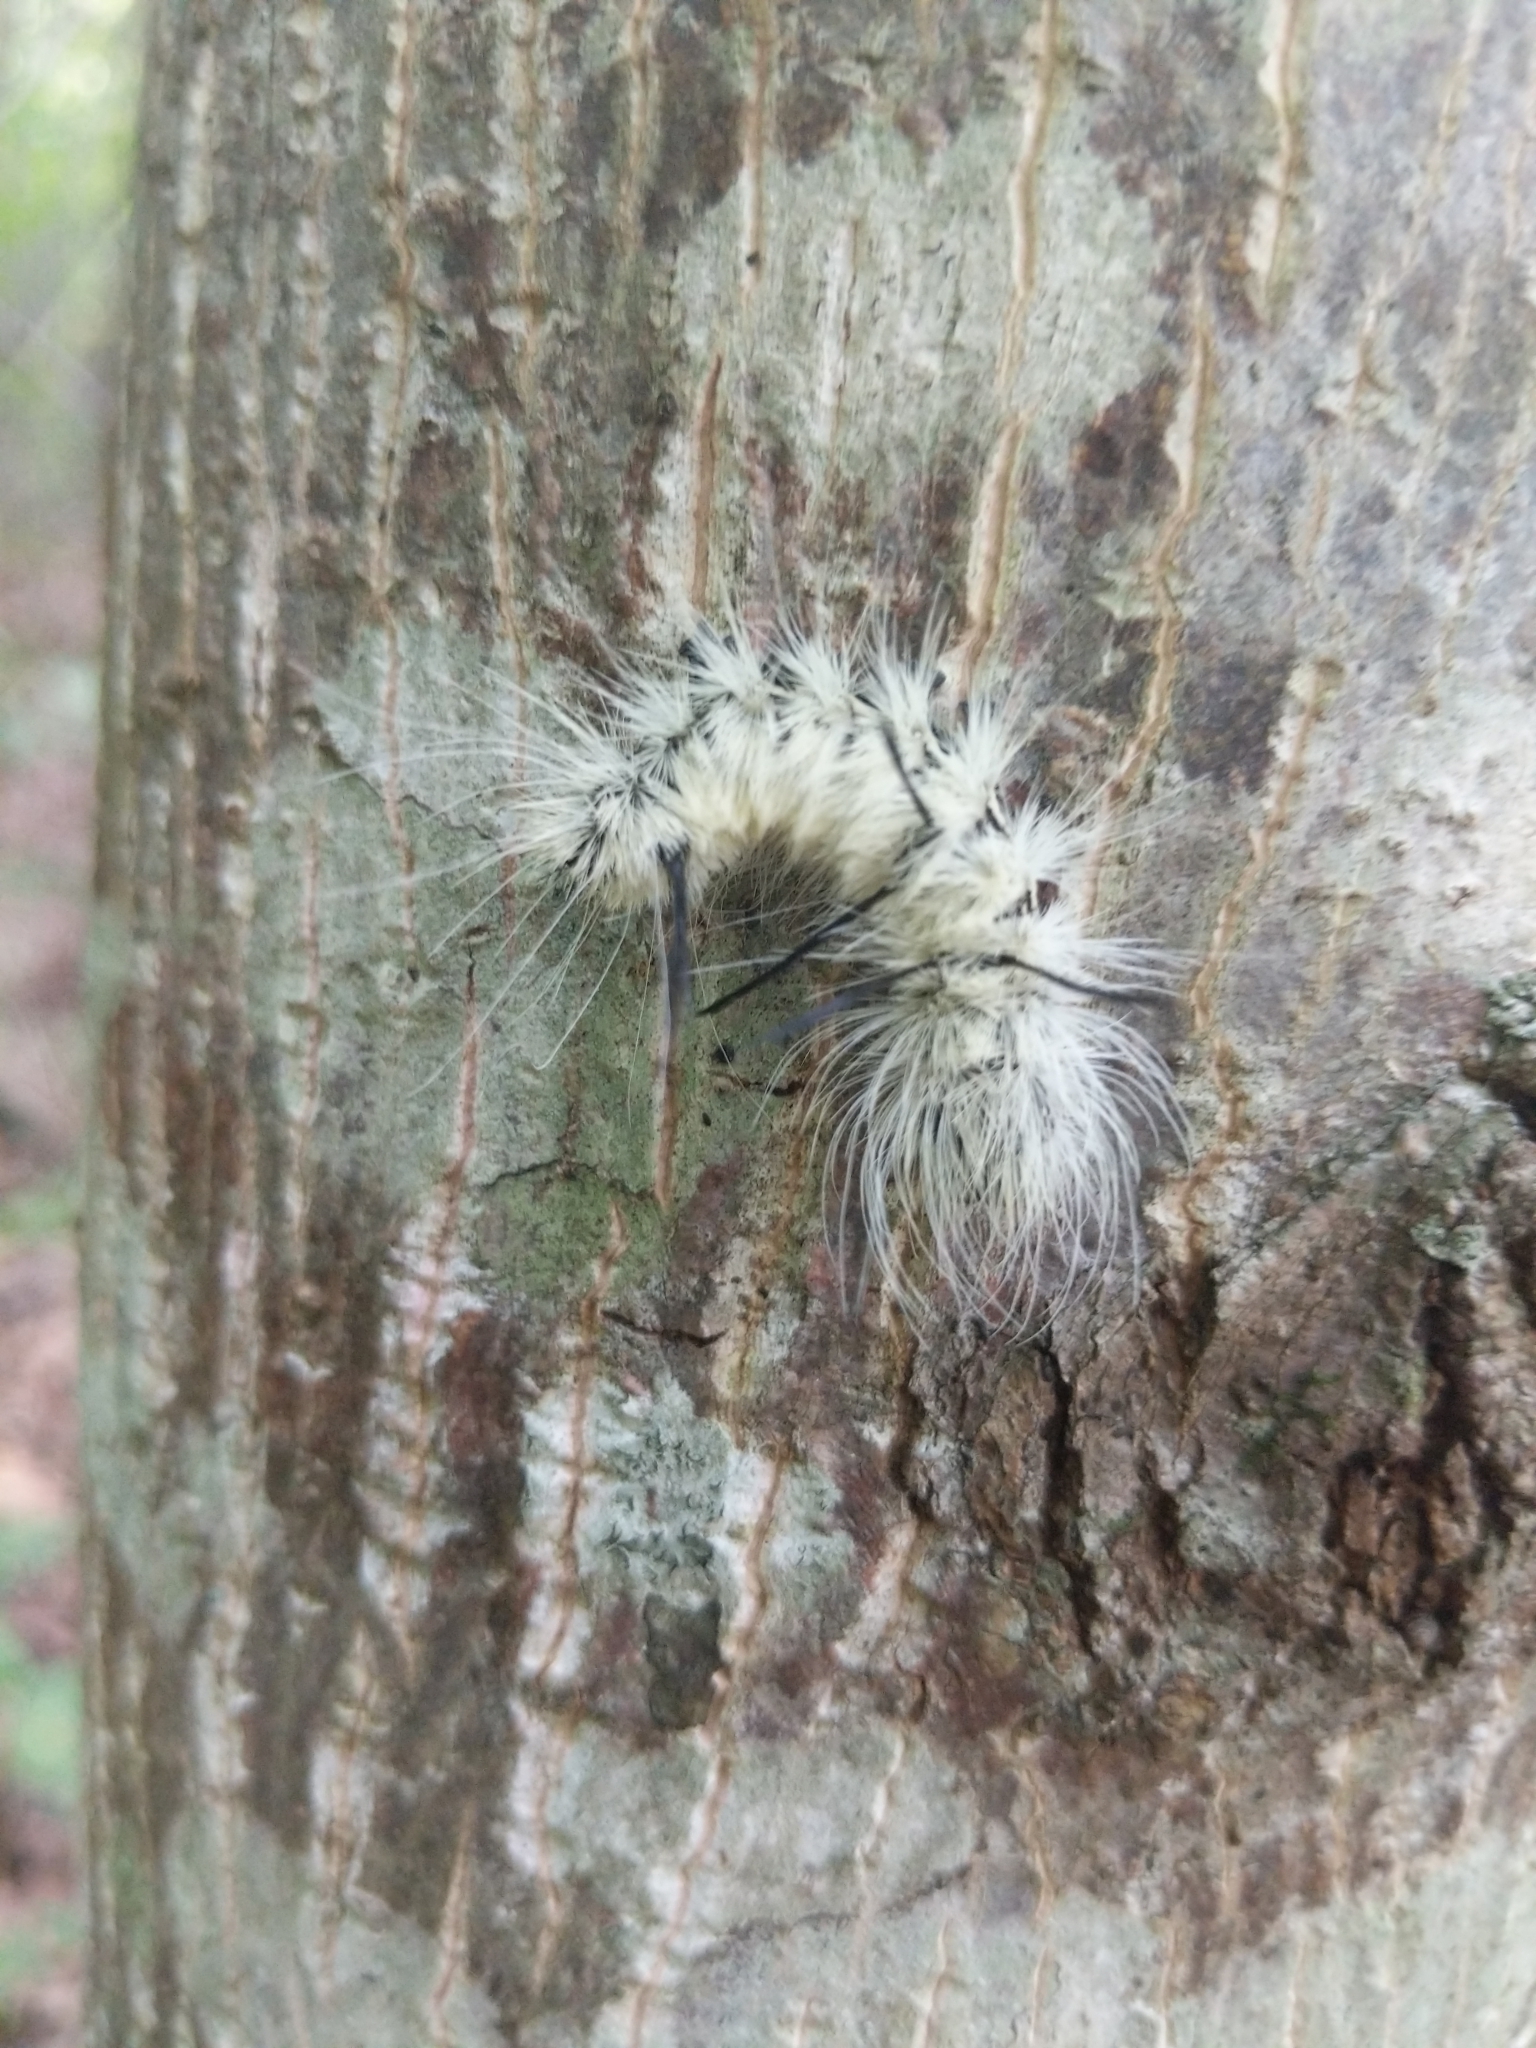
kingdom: Animalia
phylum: Arthropoda
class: Insecta
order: Lepidoptera
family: Noctuidae
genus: Acronicta
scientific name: Acronicta americana
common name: American dagger
